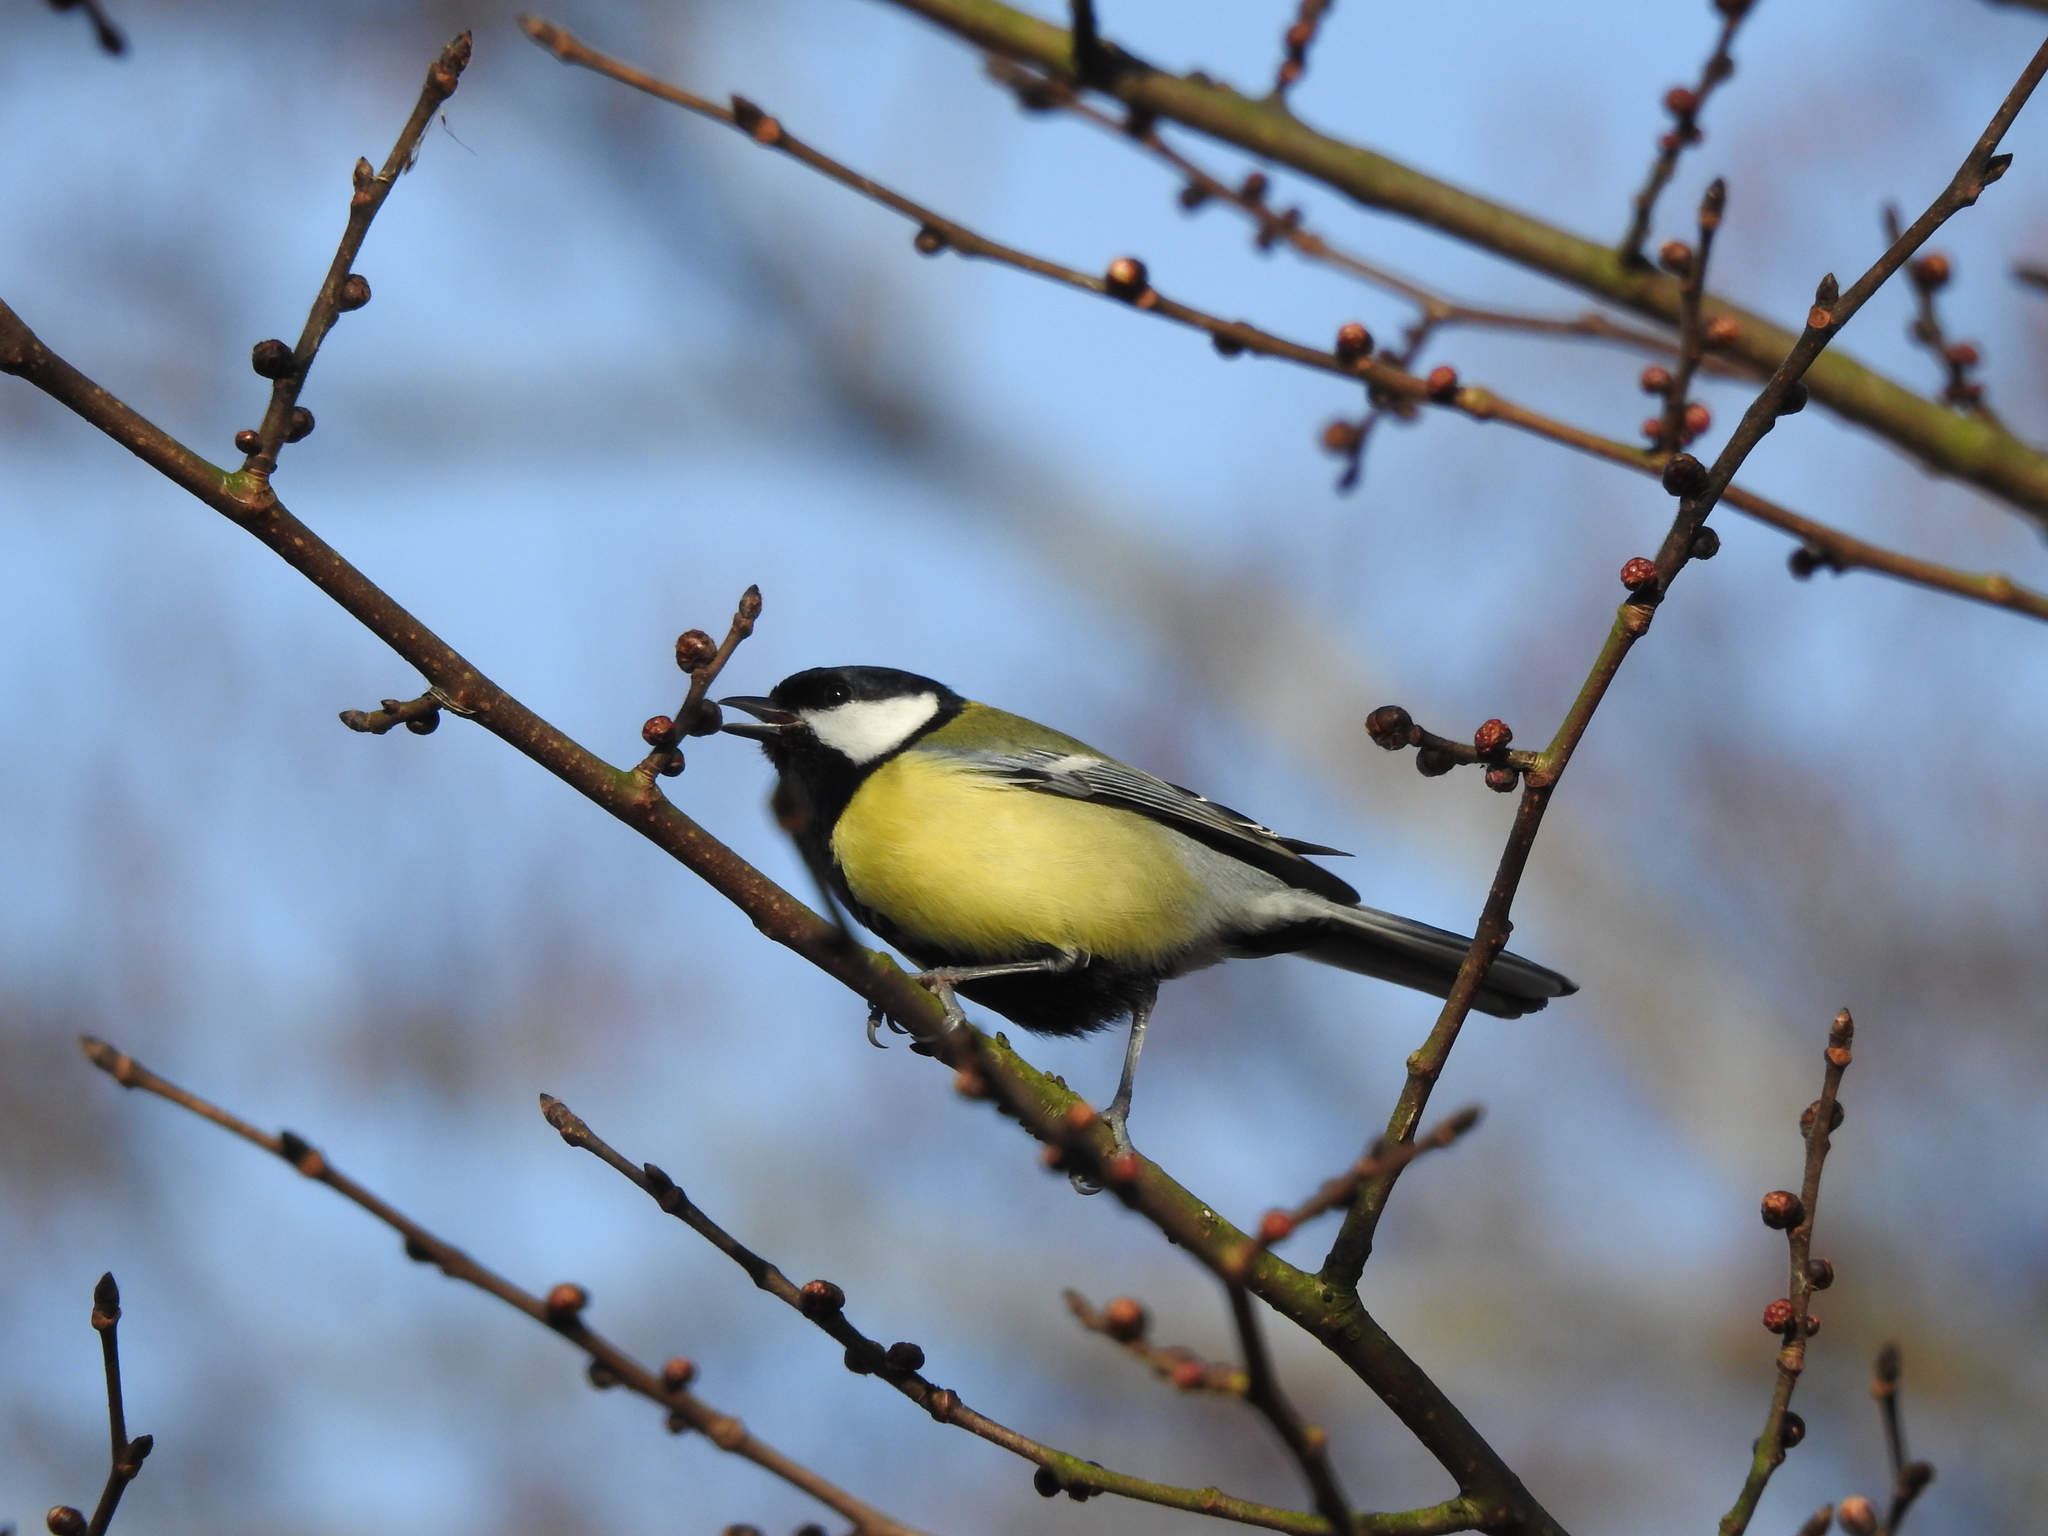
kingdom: Animalia
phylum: Chordata
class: Aves
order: Passeriformes
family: Paridae
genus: Parus
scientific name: Parus major
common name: Great tit
